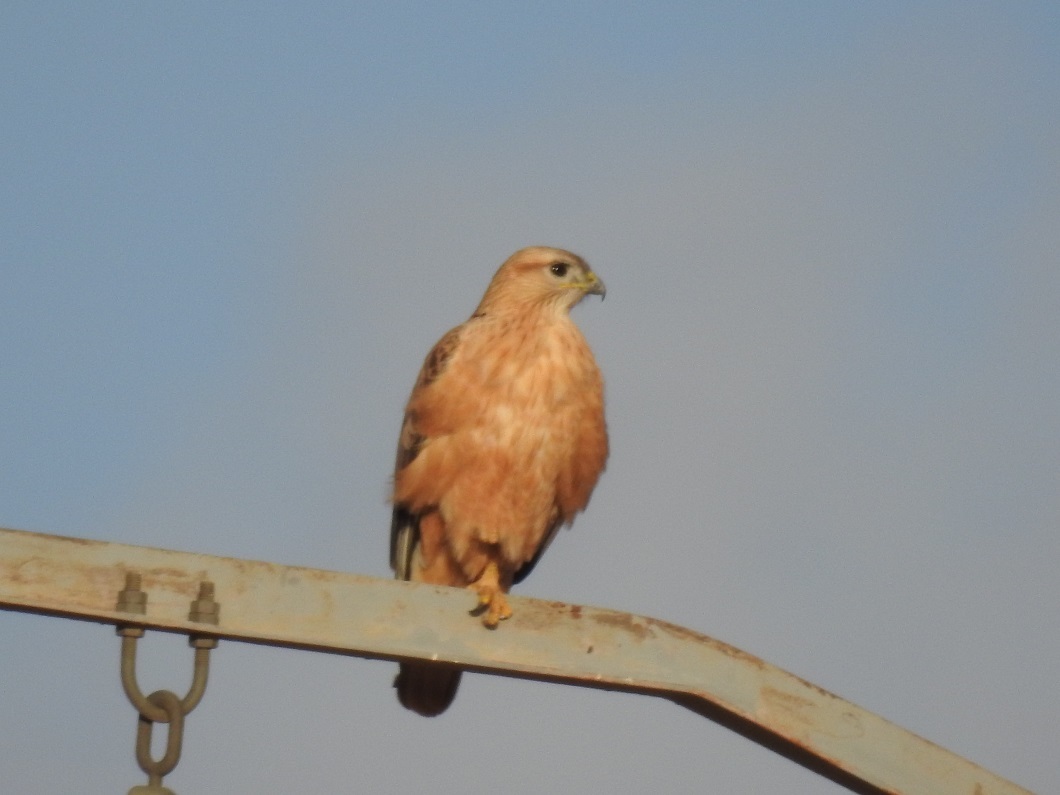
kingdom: Animalia
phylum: Chordata
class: Aves
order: Accipitriformes
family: Accipitridae
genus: Buteo
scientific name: Buteo rufinus
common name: Long-legged buzzard
